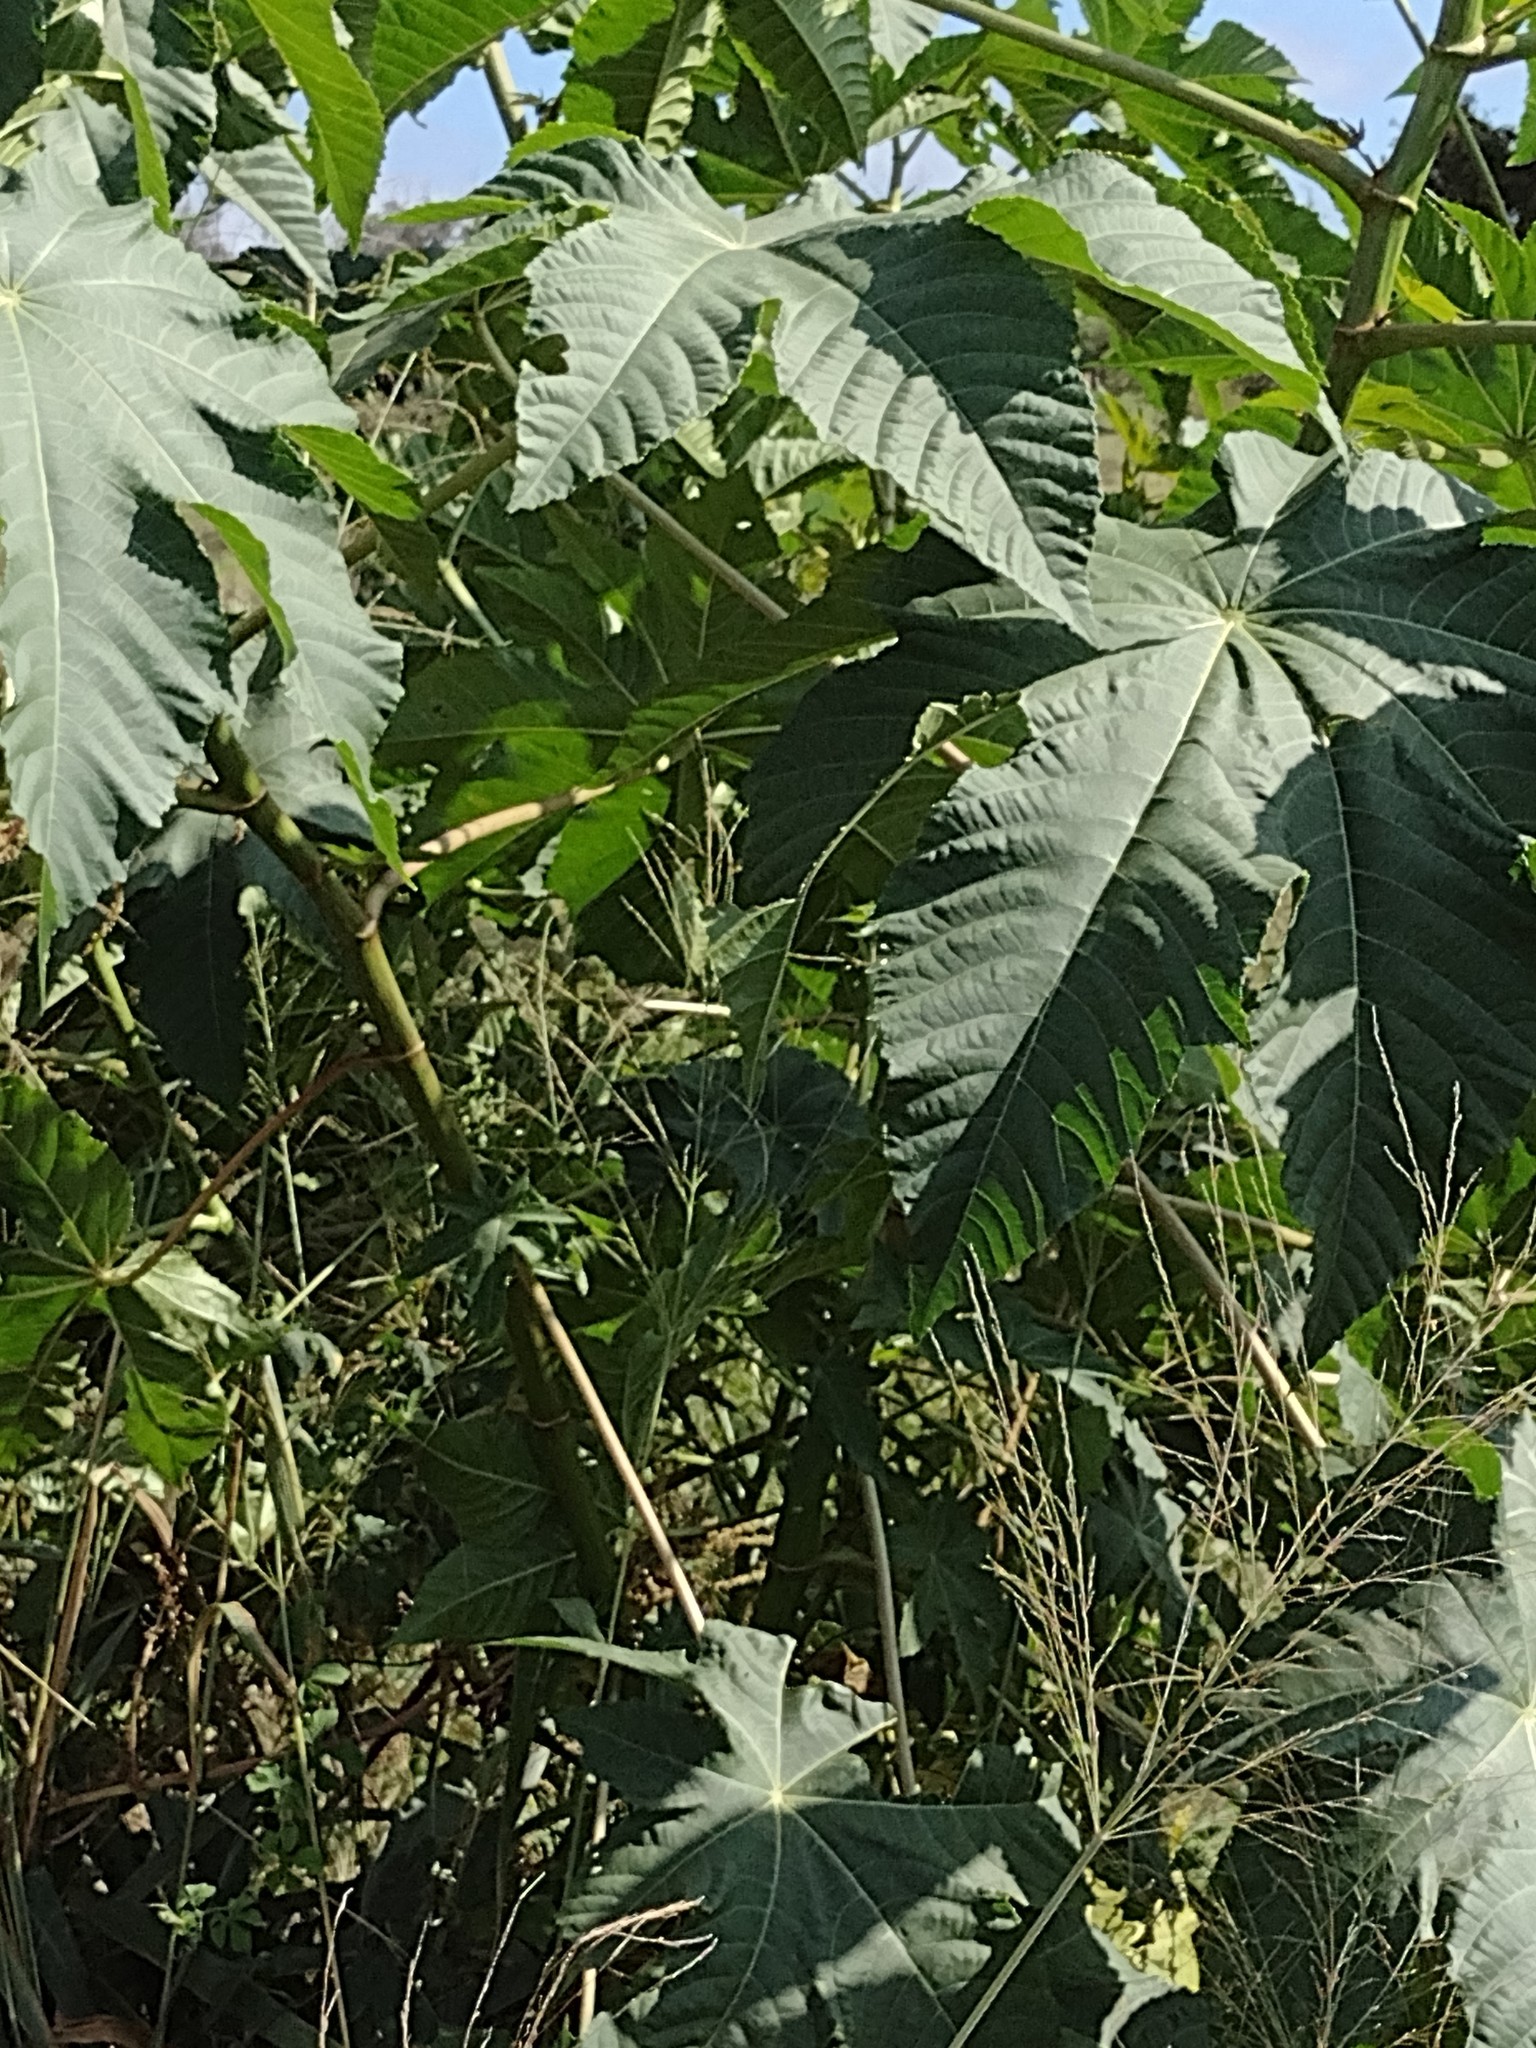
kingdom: Plantae
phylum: Tracheophyta
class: Magnoliopsida
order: Malpighiales
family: Euphorbiaceae
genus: Ricinus
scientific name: Ricinus communis
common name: Castor-oil-plant
